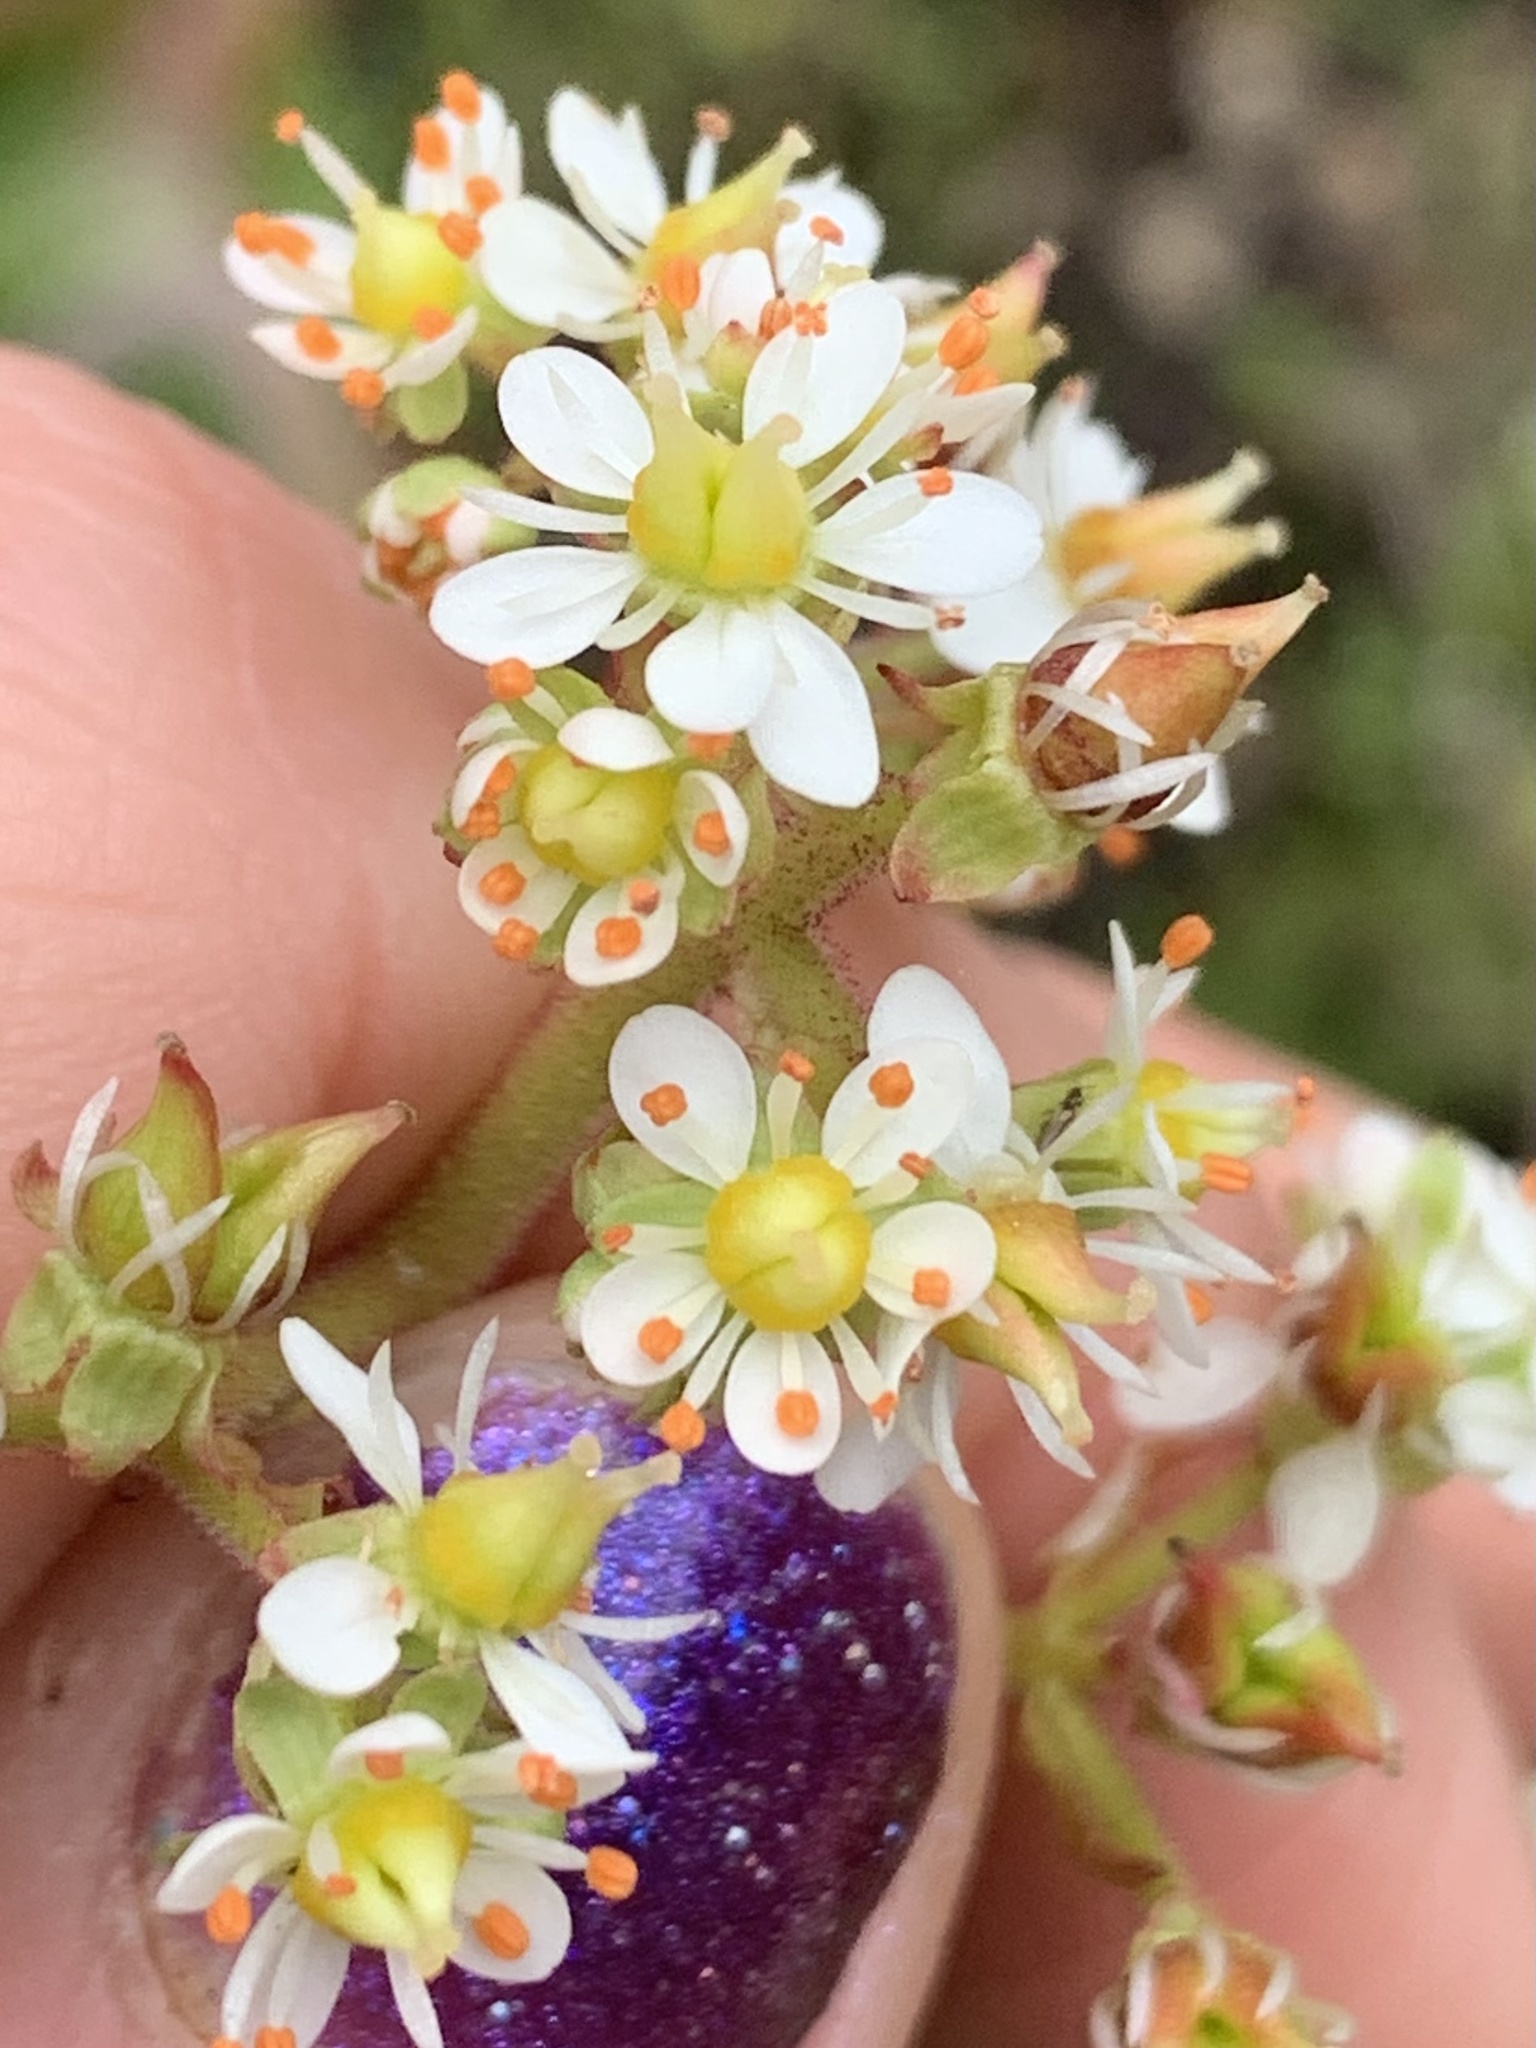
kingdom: Plantae
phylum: Tracheophyta
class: Magnoliopsida
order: Saxifragales
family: Saxifragaceae
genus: Micranthes
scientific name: Micranthes occidentalis
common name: Alberta saxifrage
